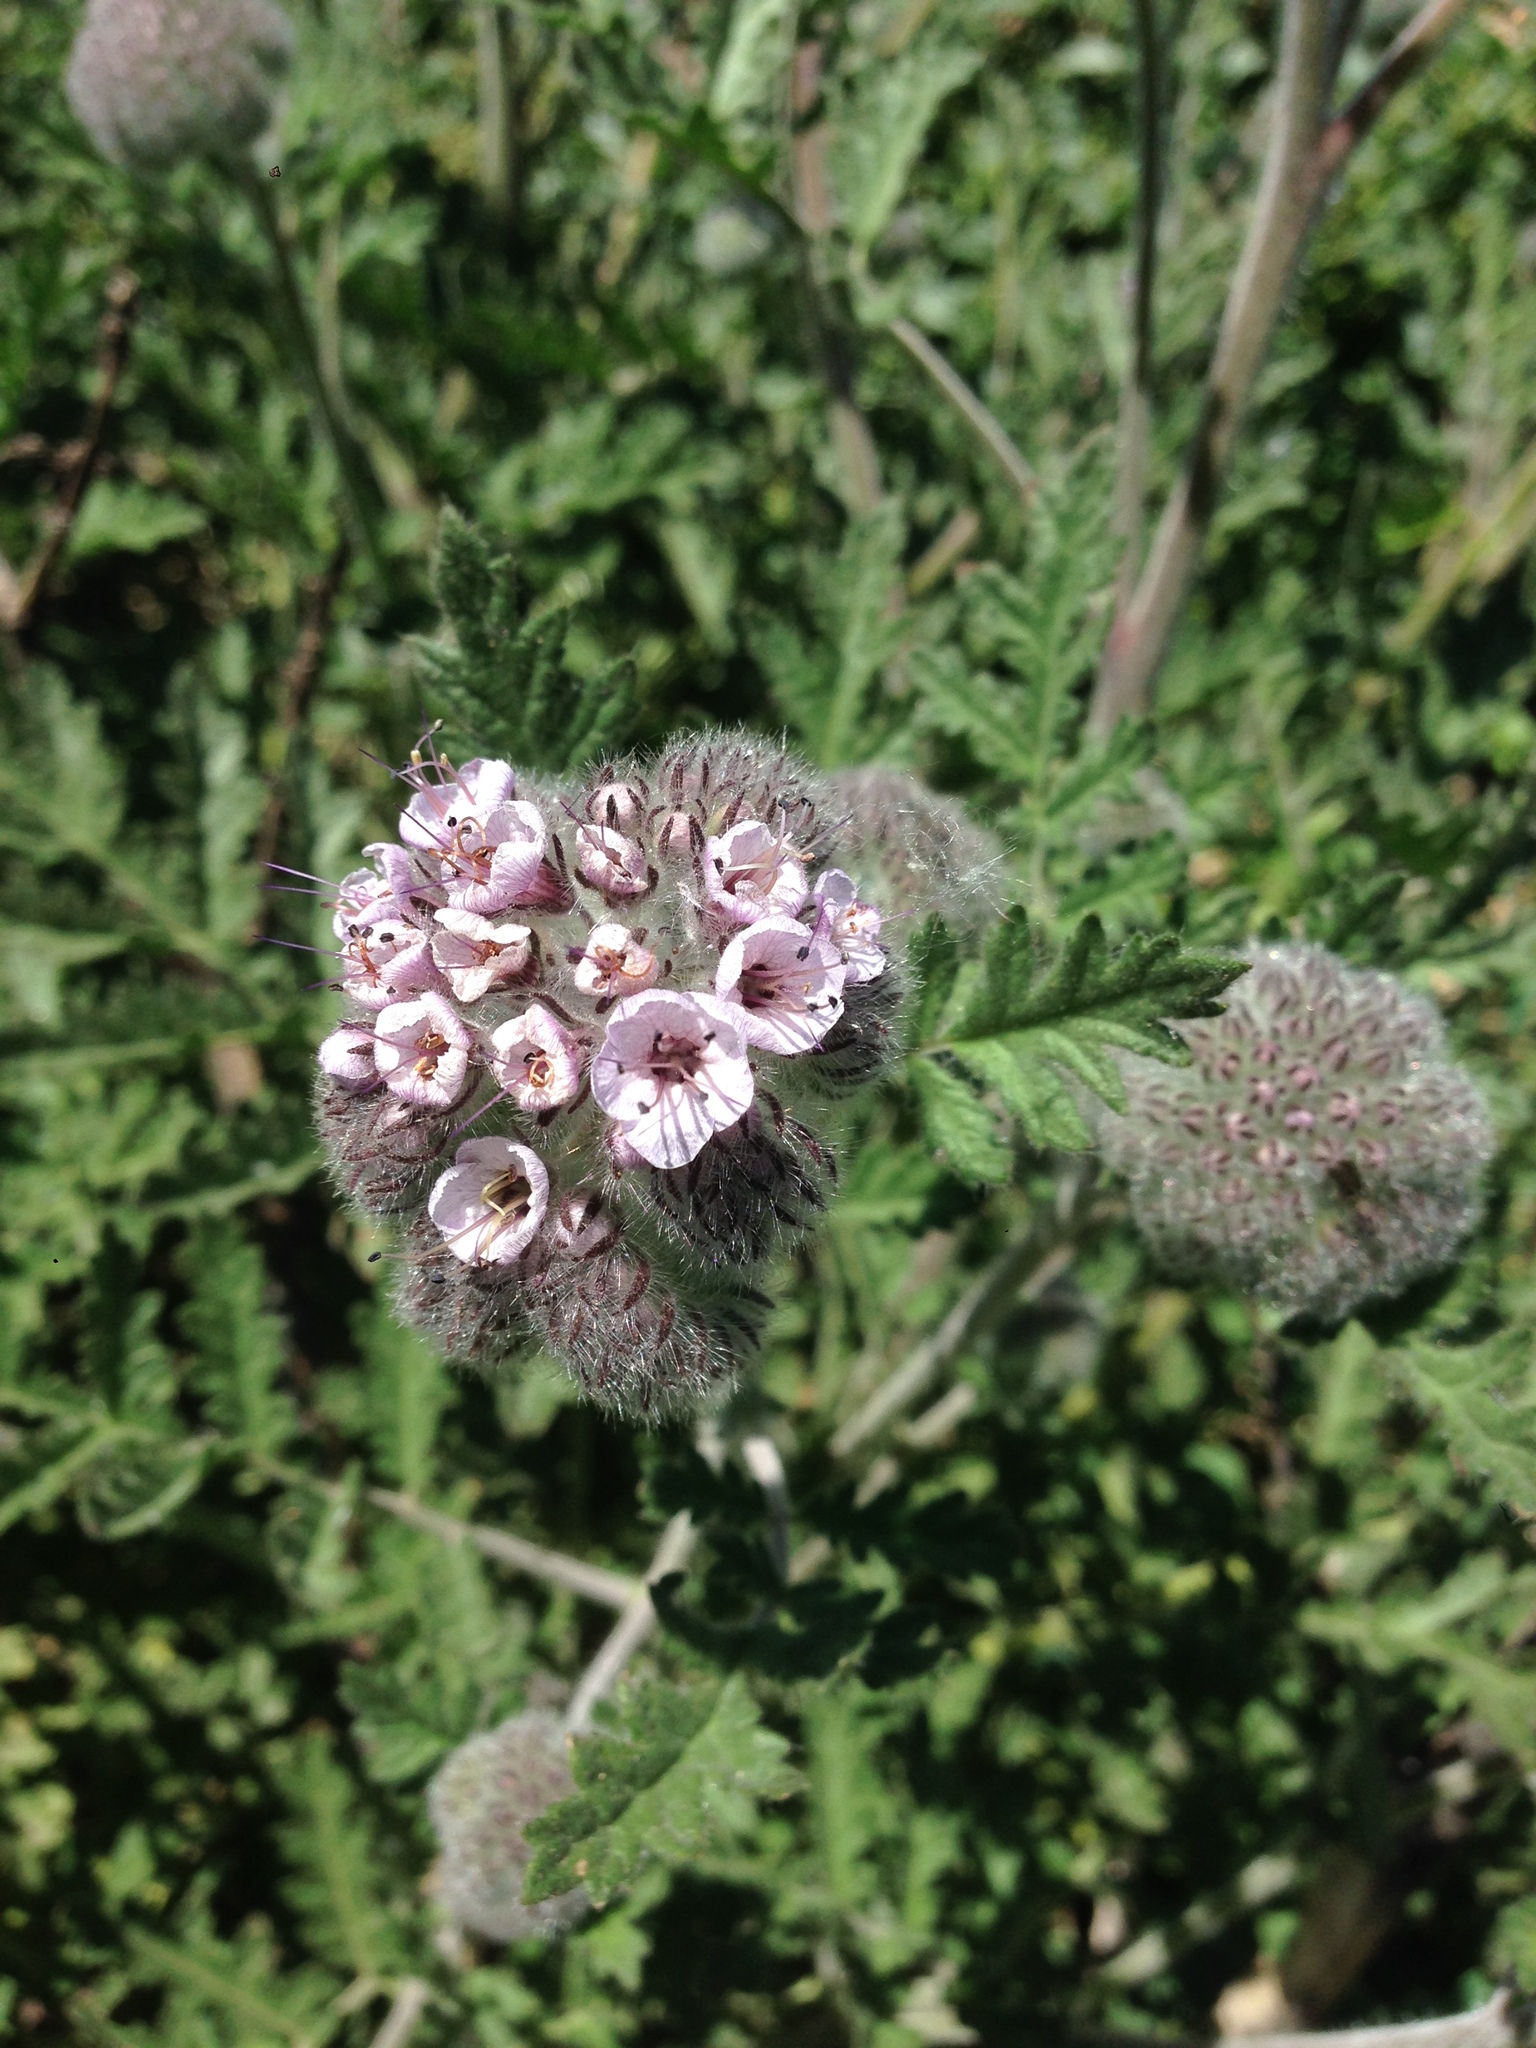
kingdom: Plantae
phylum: Tracheophyta
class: Magnoliopsida
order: Boraginales
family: Hydrophyllaceae
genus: Phacelia
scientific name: Phacelia hubbyi
